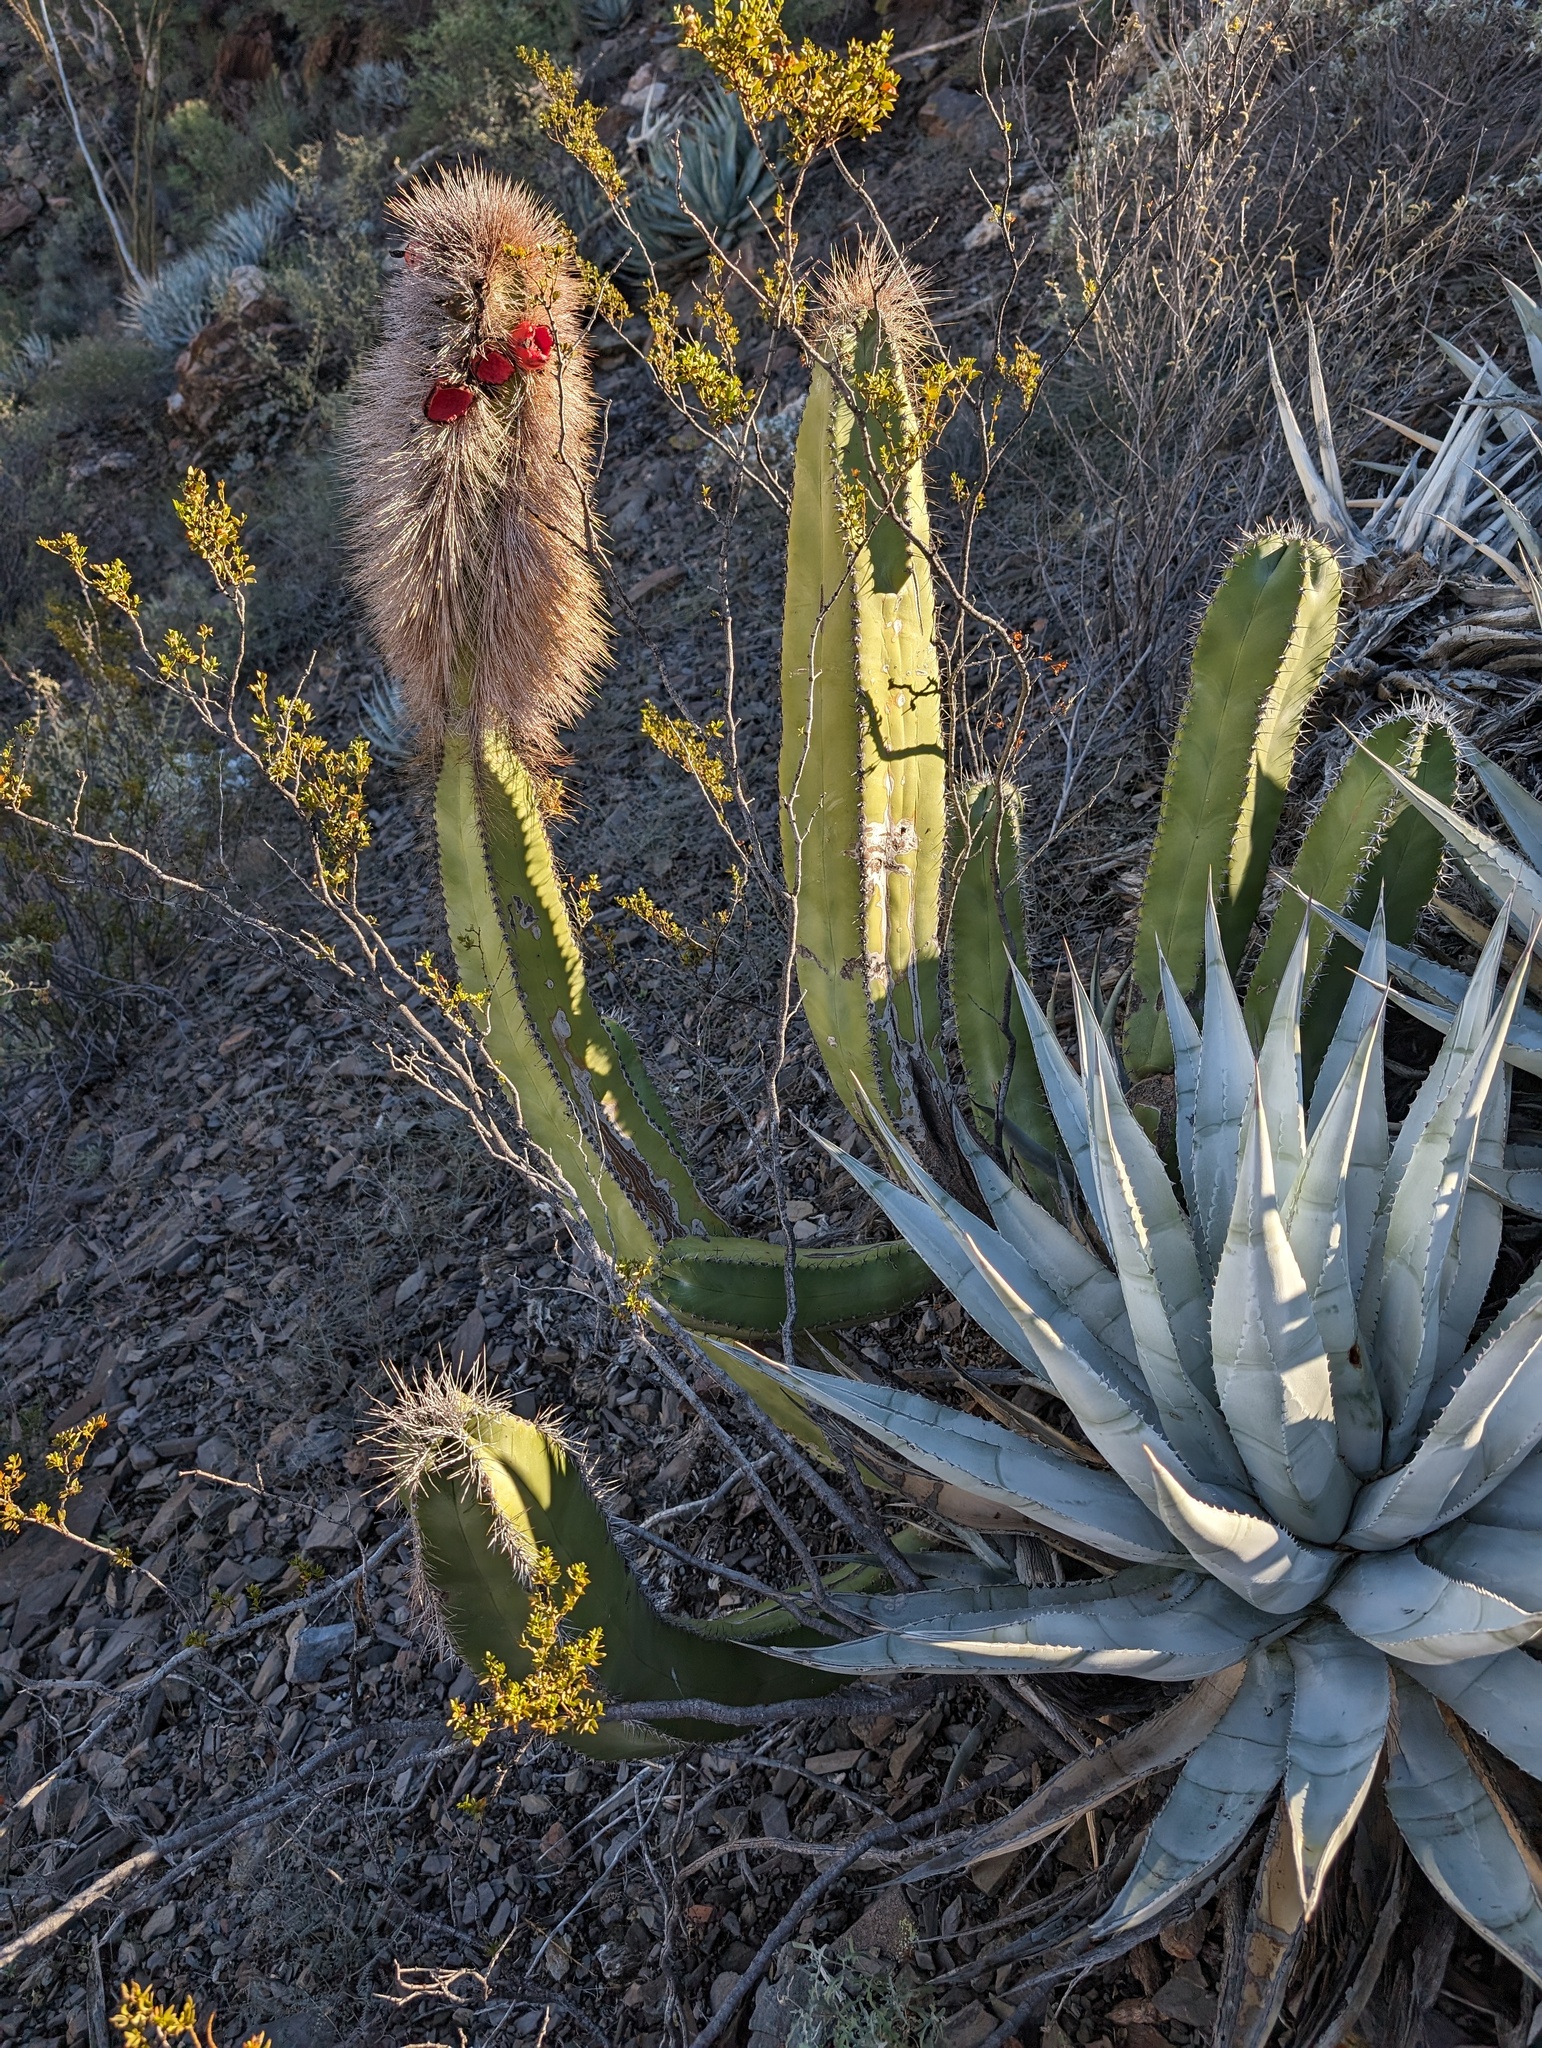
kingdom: Plantae
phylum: Tracheophyta
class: Magnoliopsida
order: Caryophyllales
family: Cactaceae
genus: Pachycereus
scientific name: Pachycereus schottii
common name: Senita cactus
